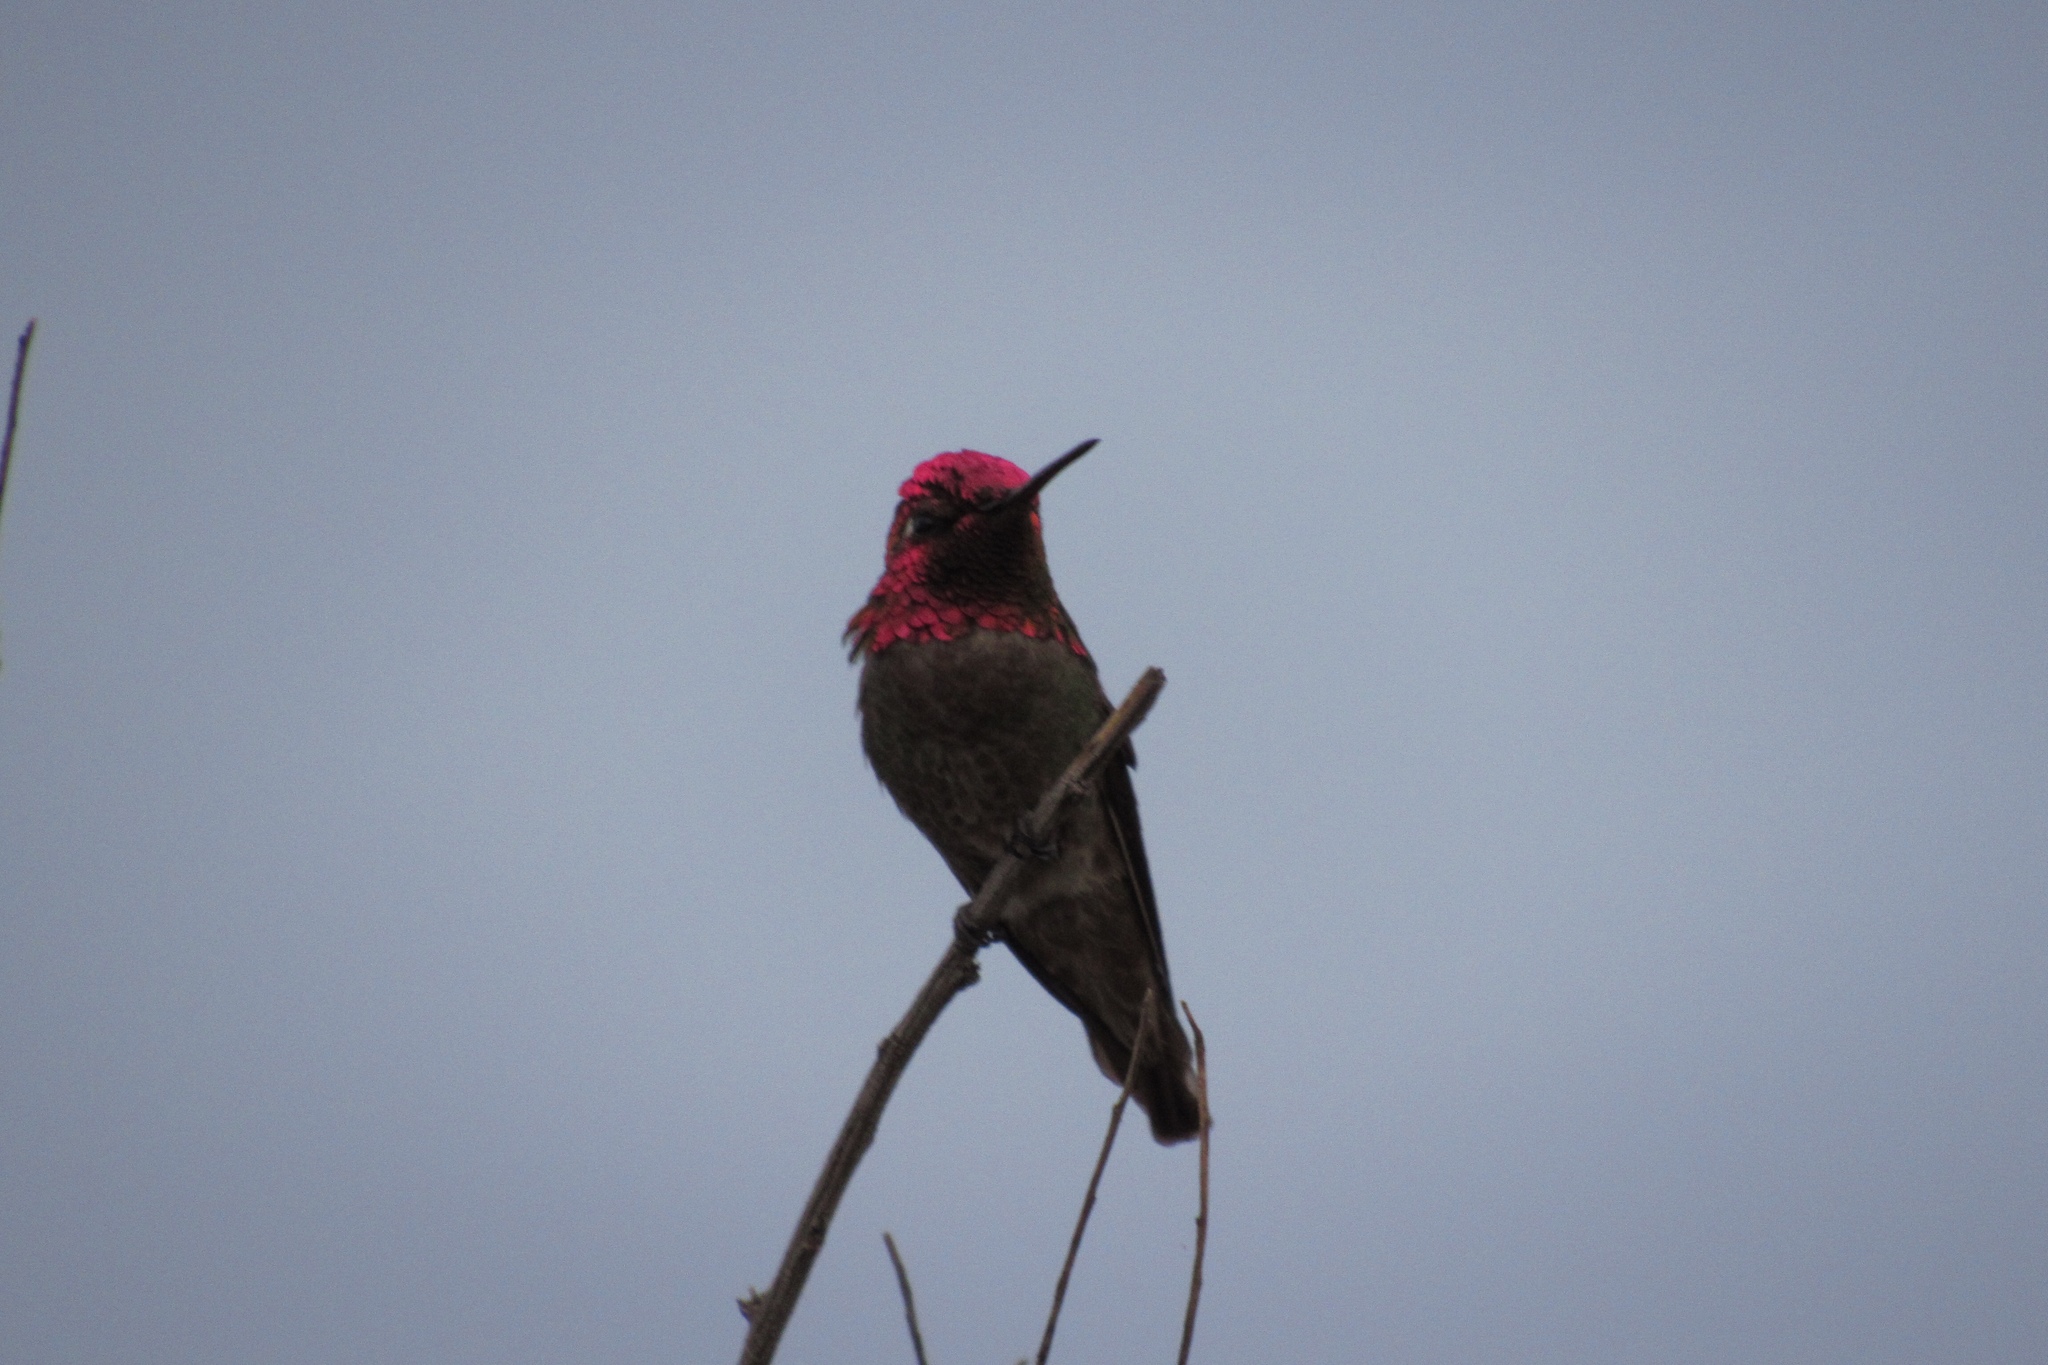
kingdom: Animalia
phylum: Chordata
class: Aves
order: Apodiformes
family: Trochilidae
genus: Calypte
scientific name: Calypte anna
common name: Anna's hummingbird
